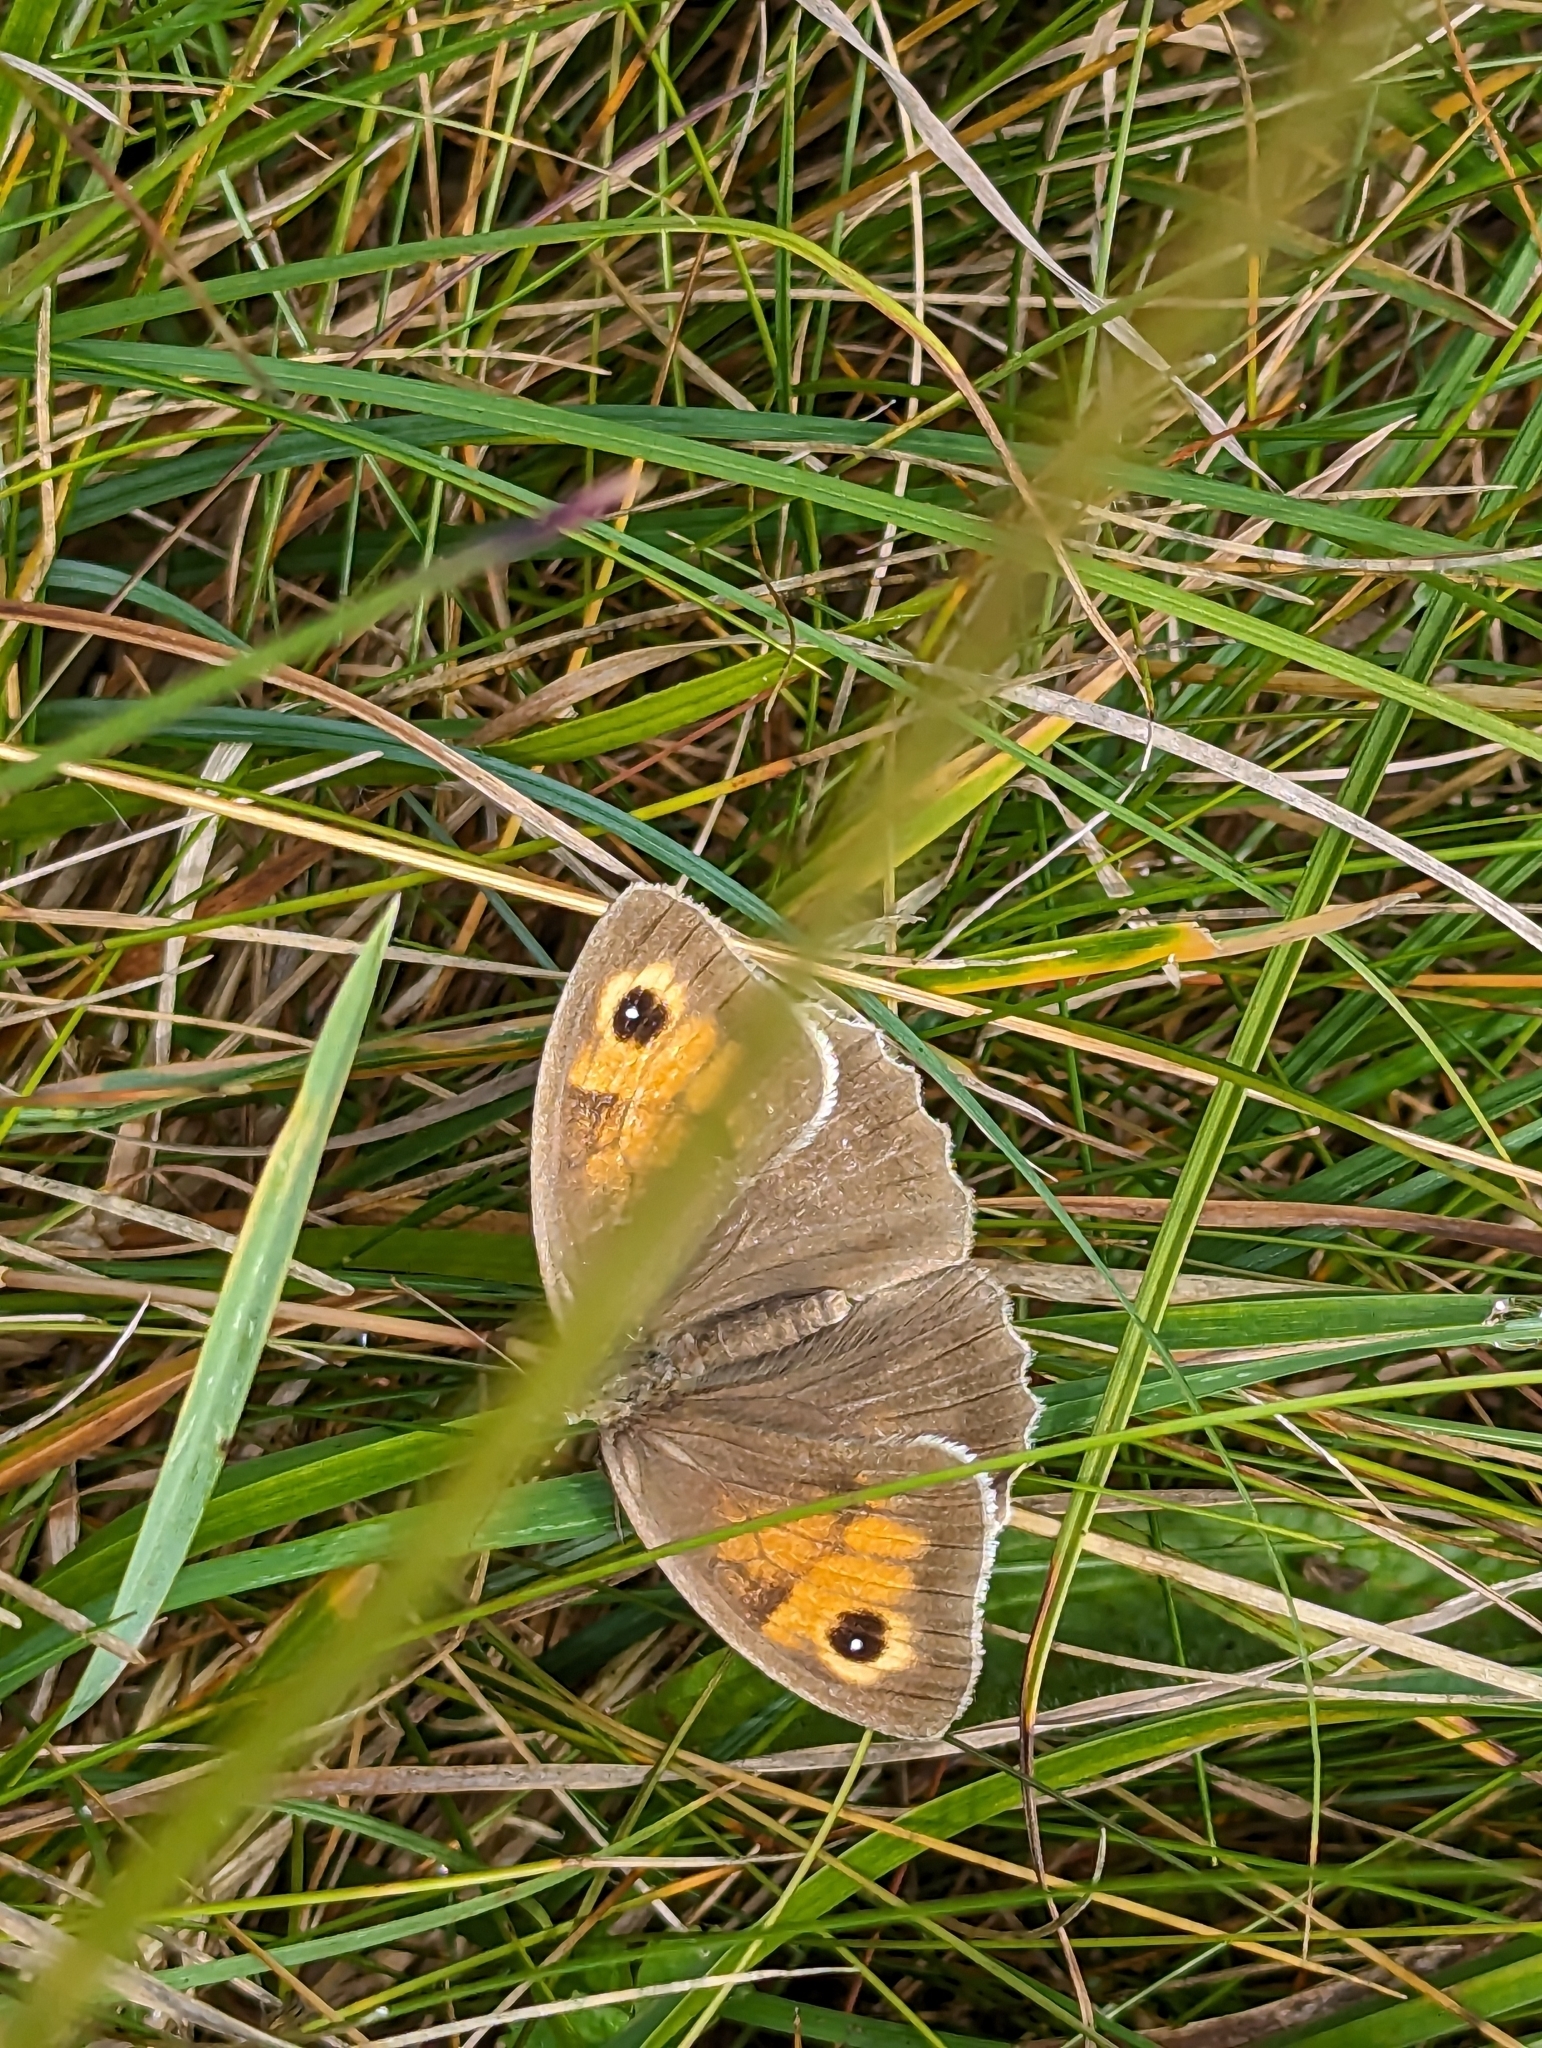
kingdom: Animalia
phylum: Arthropoda
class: Insecta
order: Lepidoptera
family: Nymphalidae
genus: Maniola
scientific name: Maniola jurtina
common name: Meadow brown
